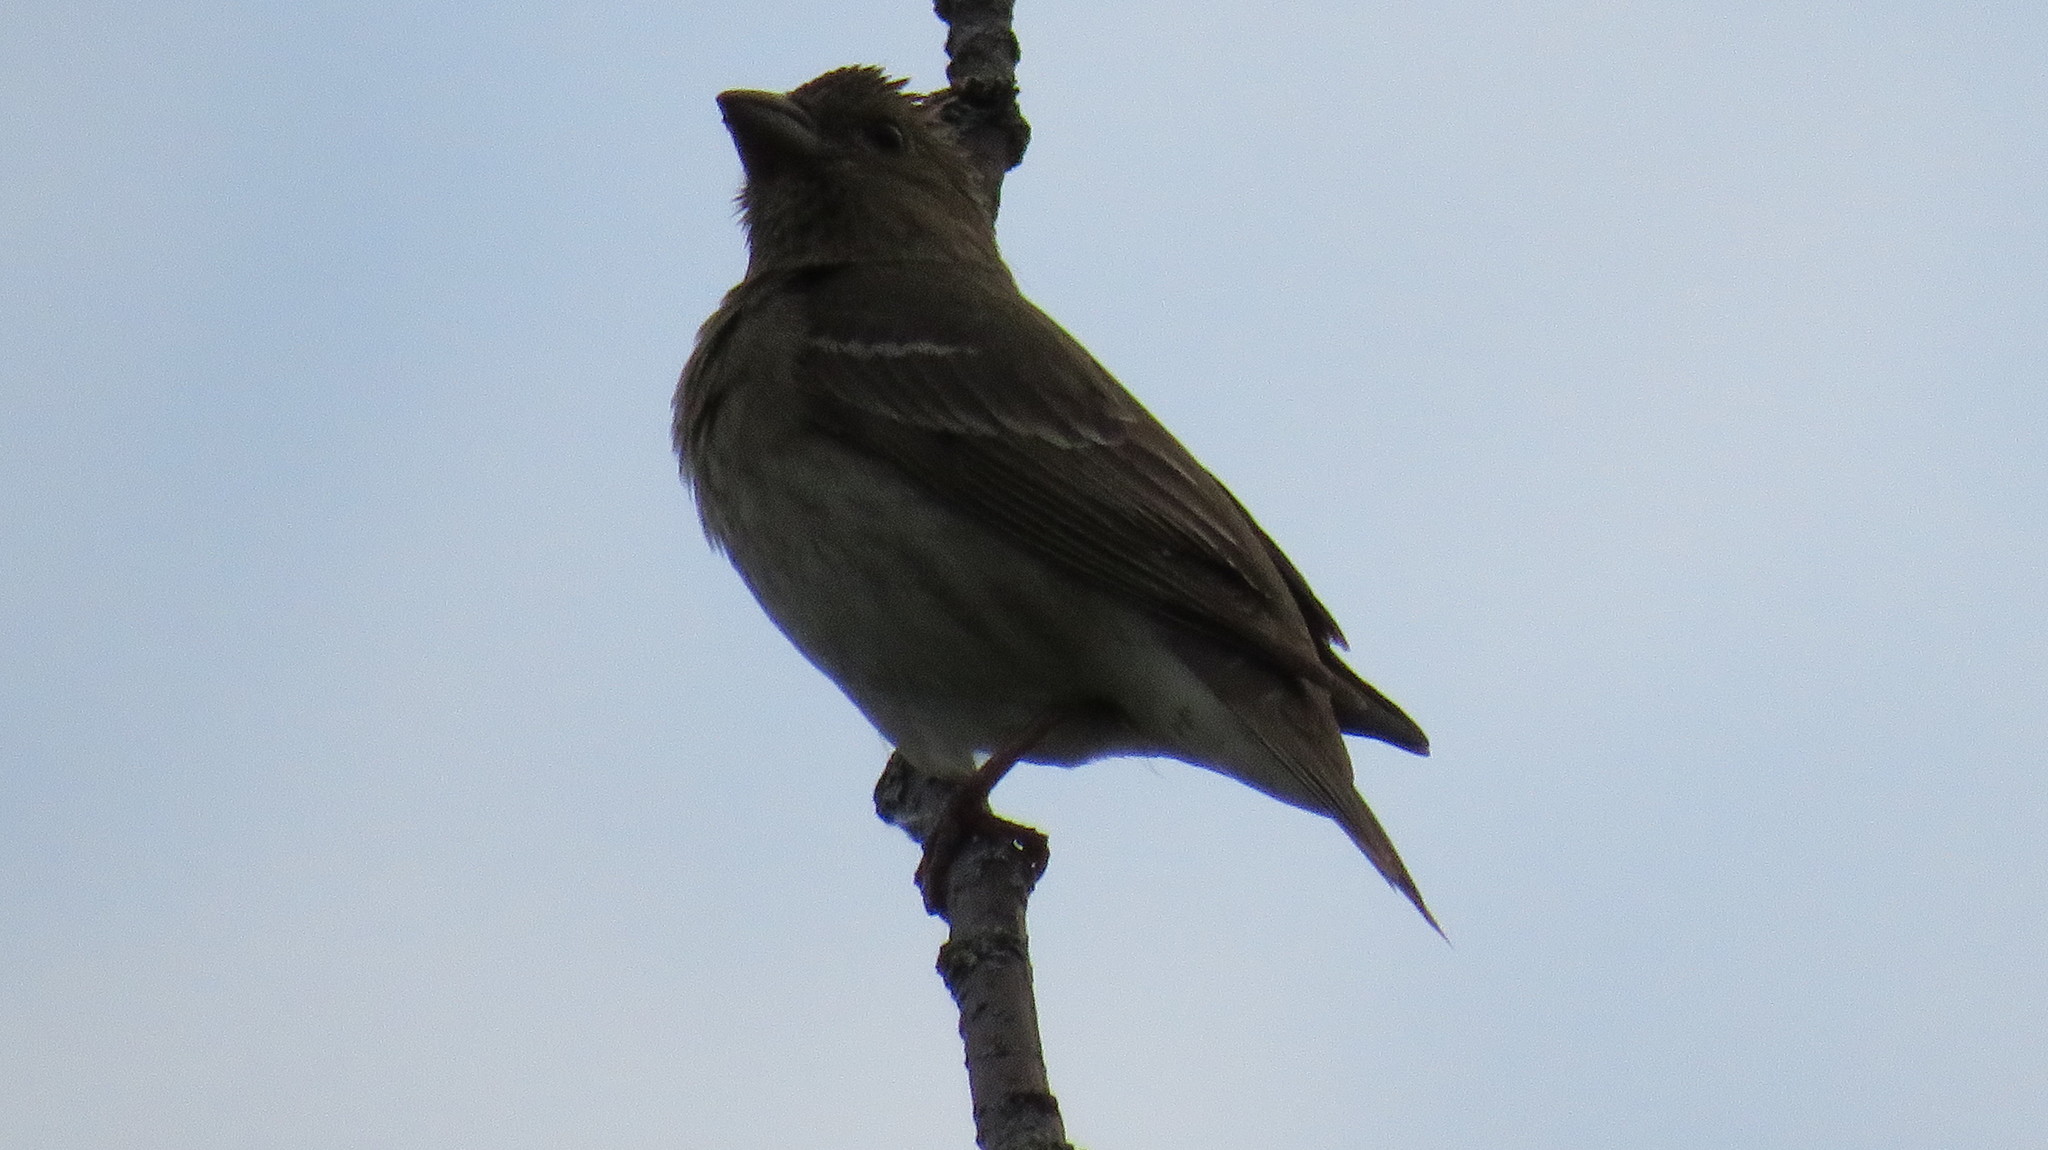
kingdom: Animalia
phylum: Chordata
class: Aves
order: Passeriformes
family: Fringillidae
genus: Carpodacus
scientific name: Carpodacus erythrinus
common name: Common rosefinch
